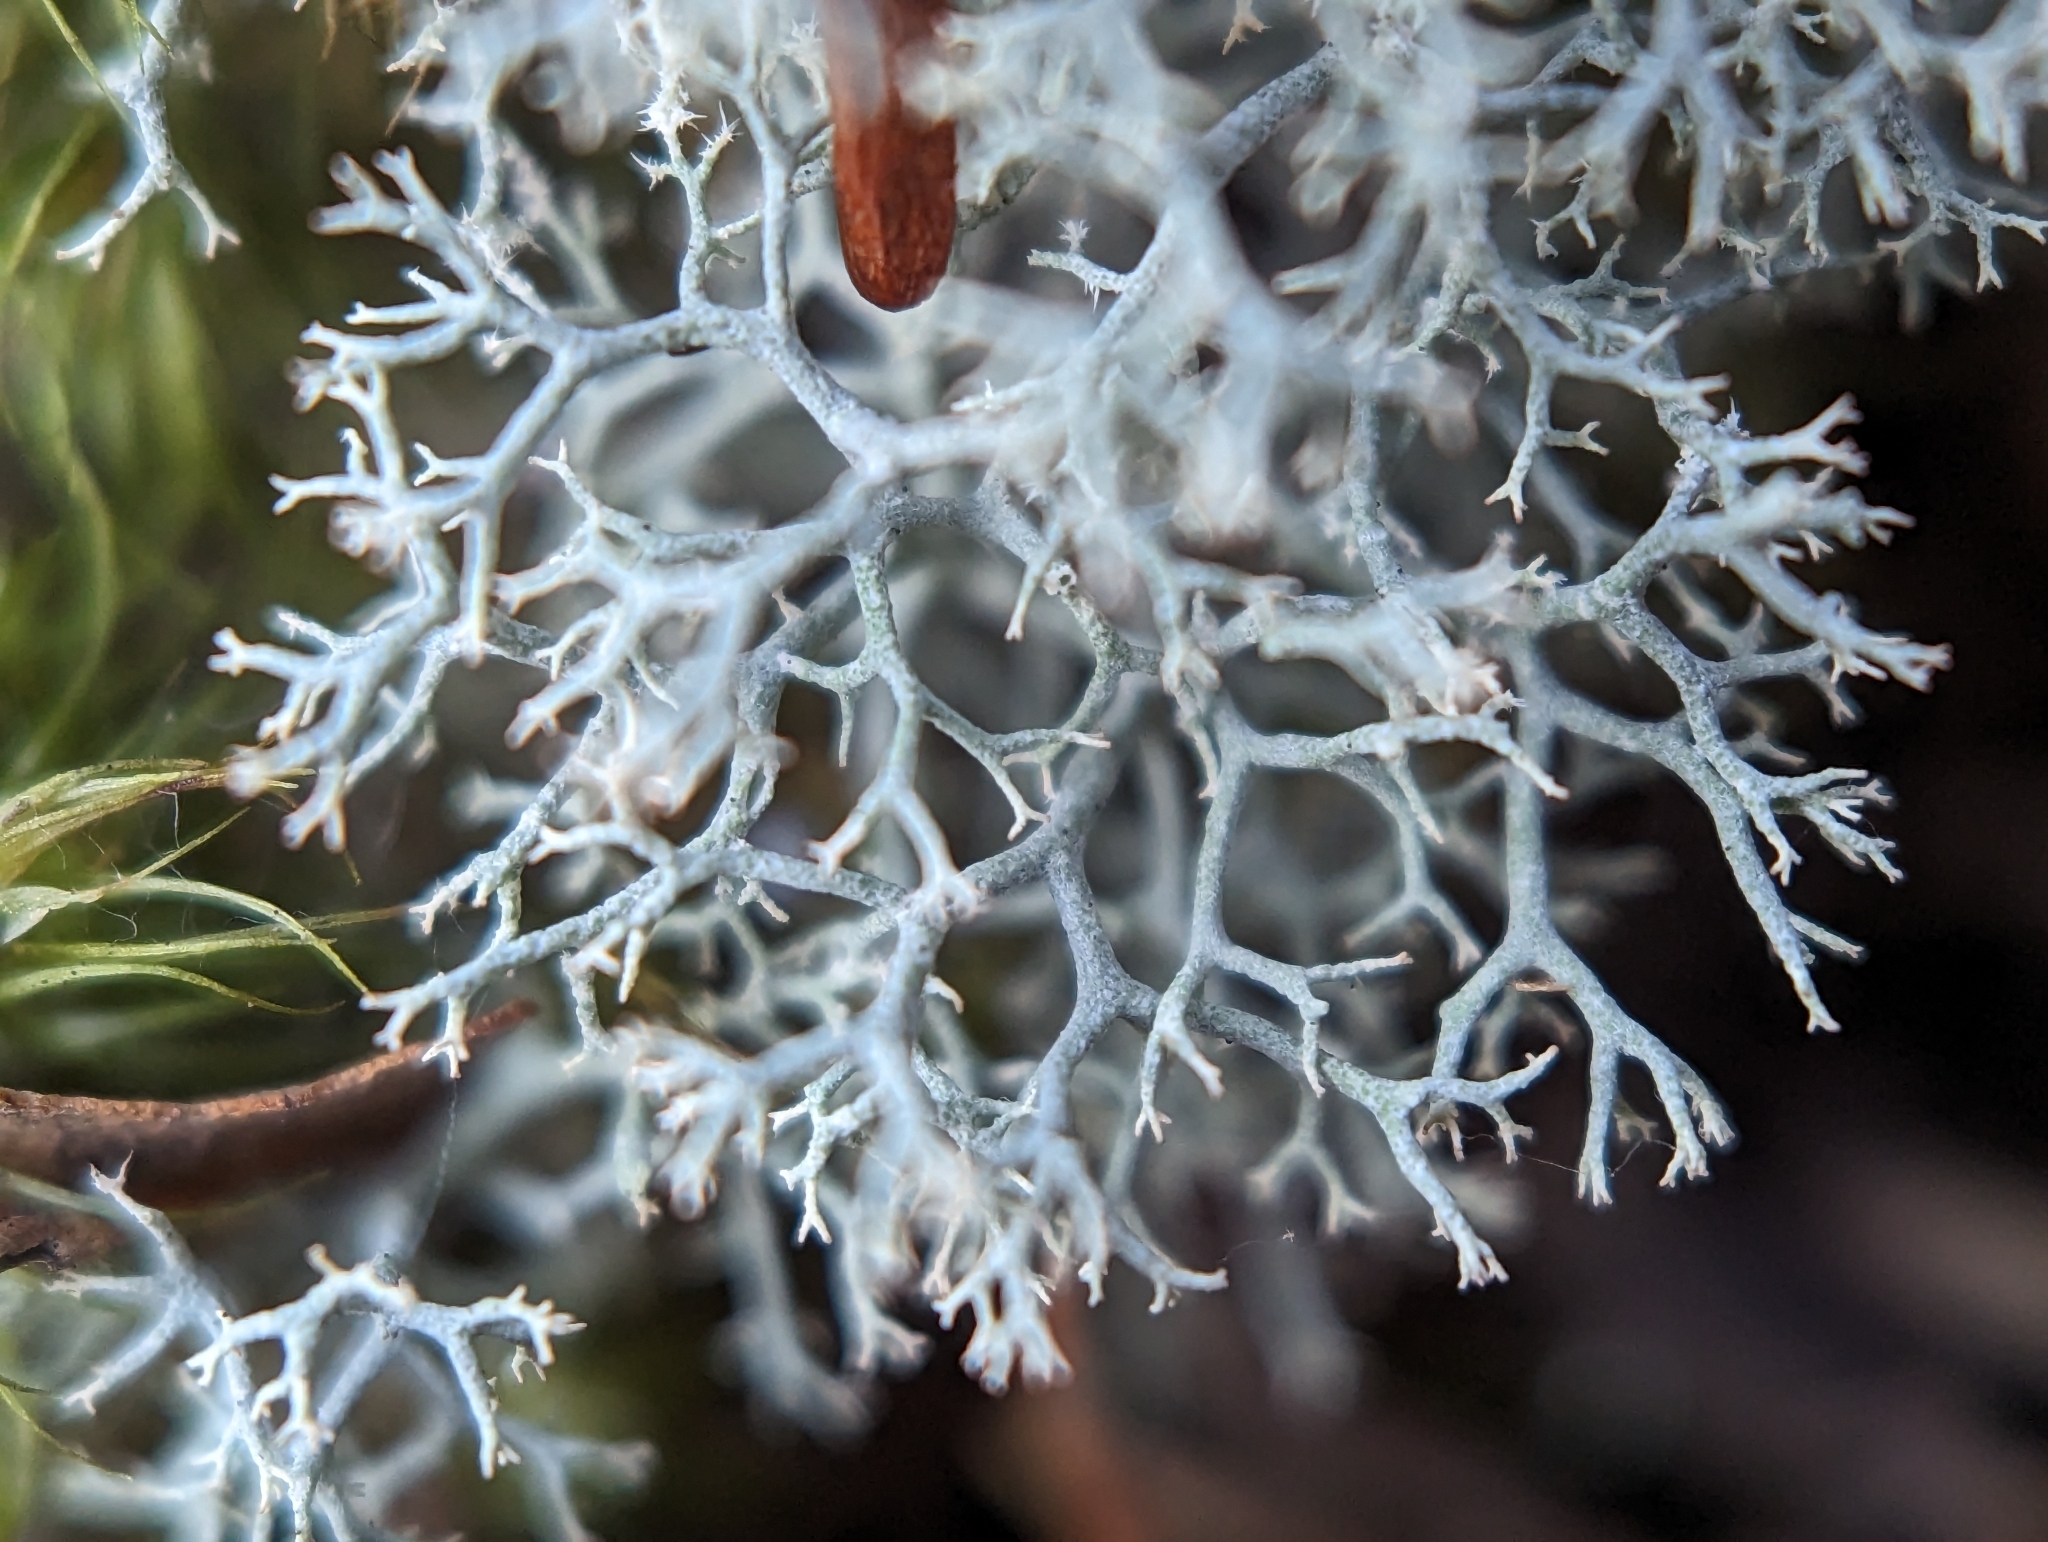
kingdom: Fungi
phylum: Ascomycota
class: Lecanoromycetes
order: Lecanorales
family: Cladoniaceae
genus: Cladonia
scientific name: Cladonia rangiferina
